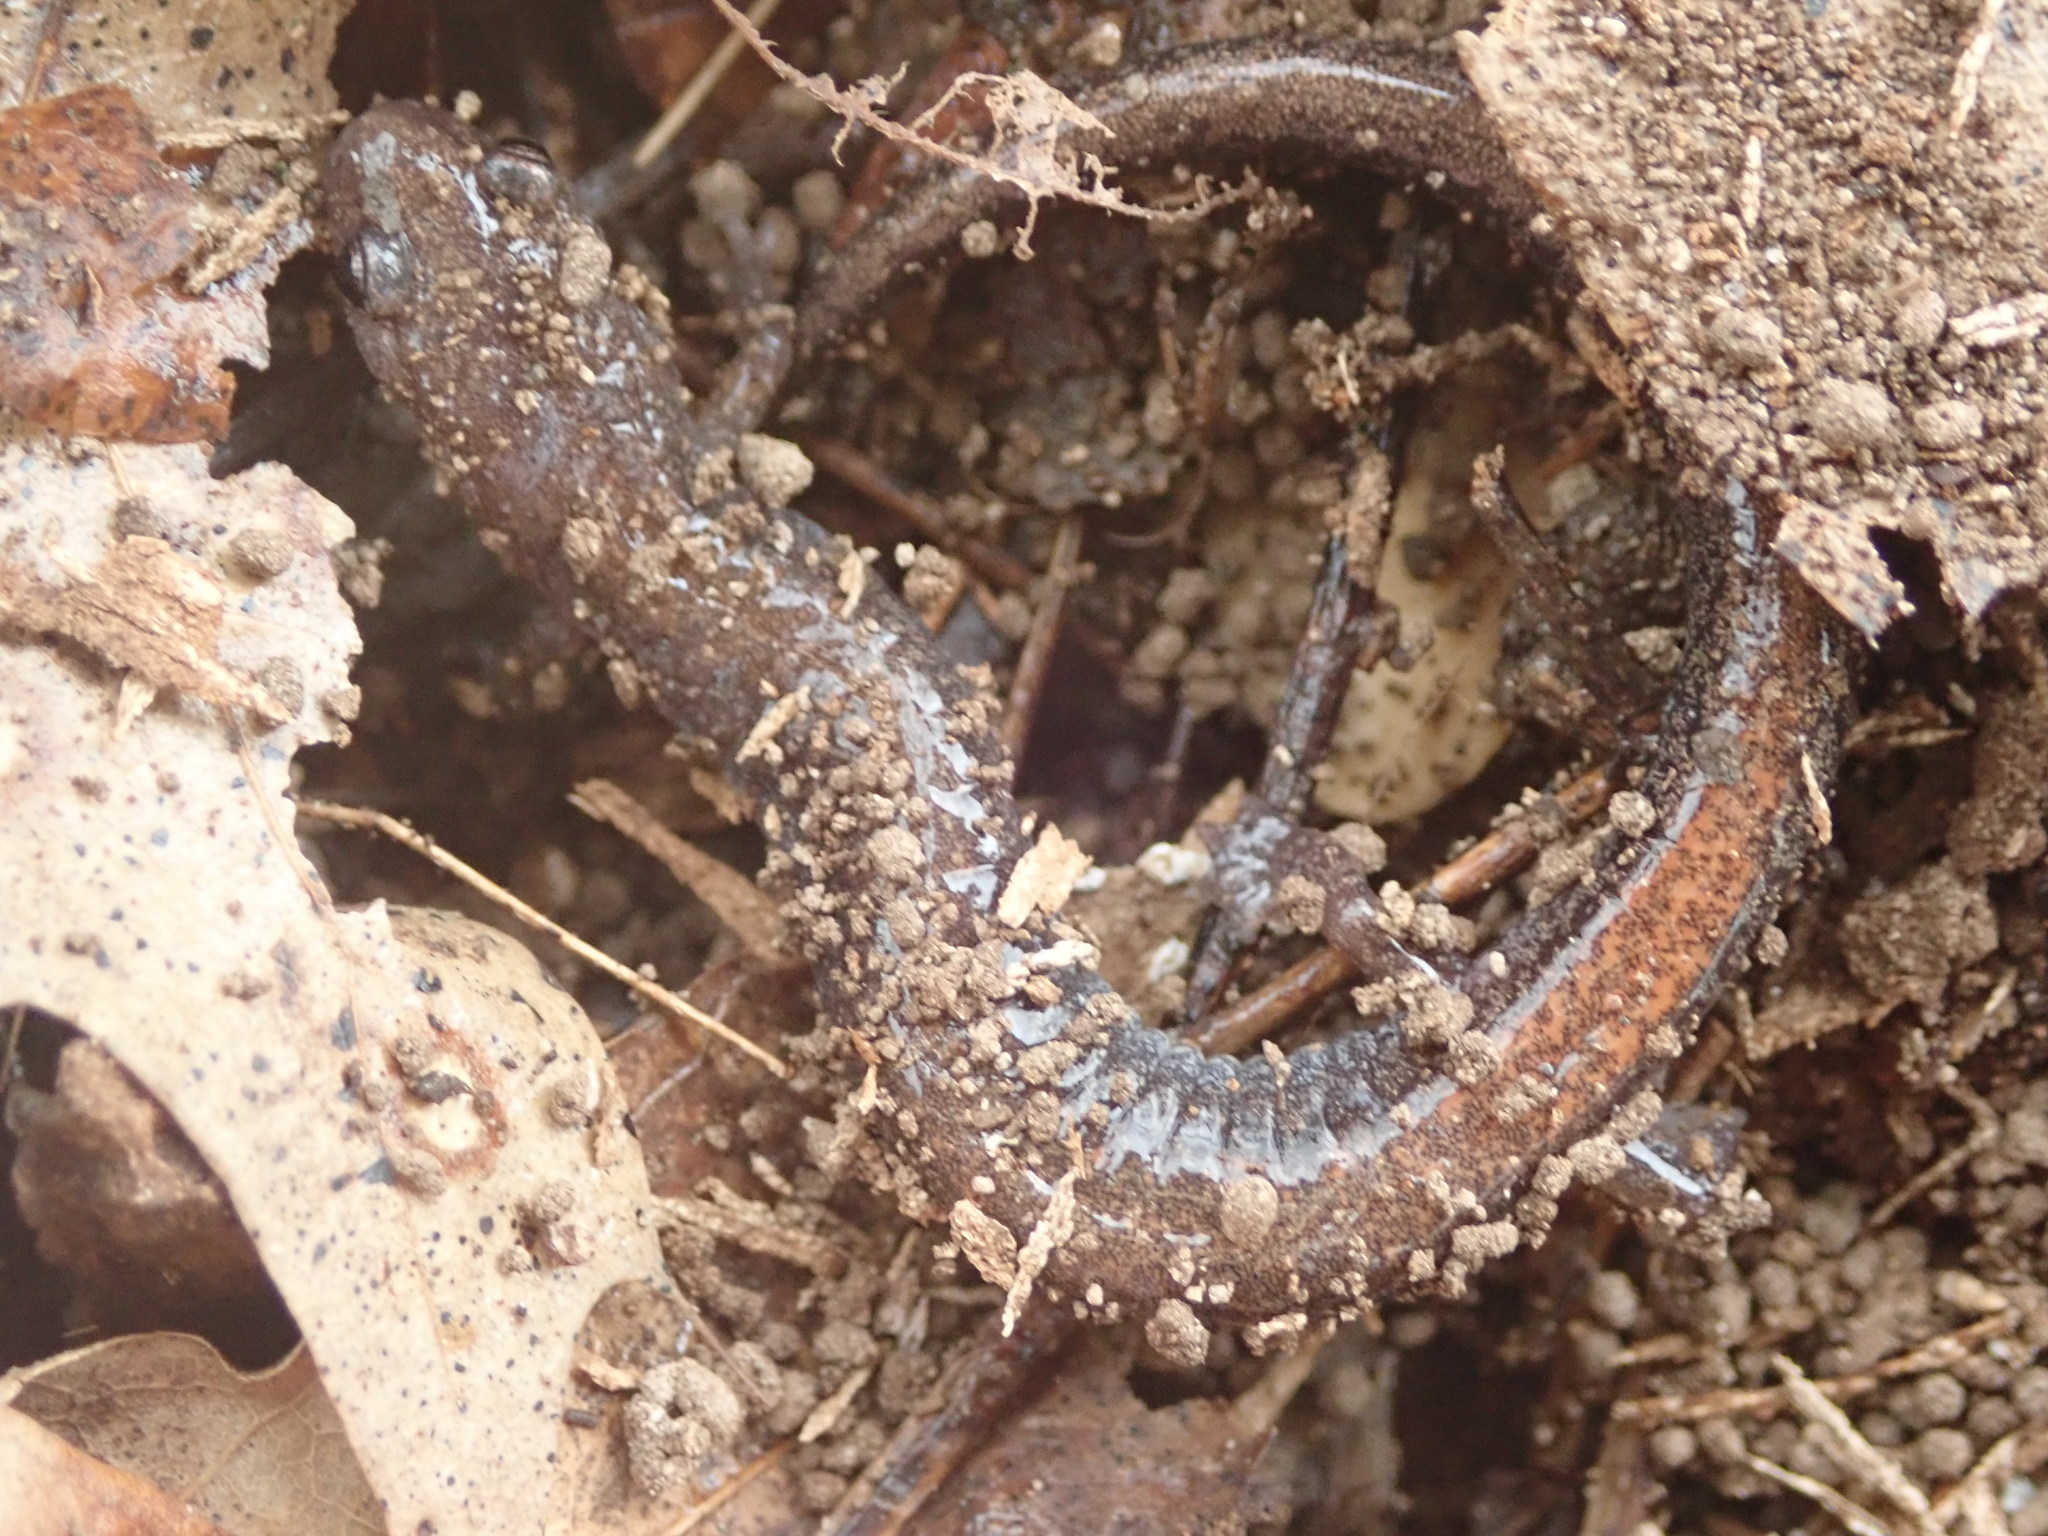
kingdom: Animalia
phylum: Chordata
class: Amphibia
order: Caudata
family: Plethodontidae
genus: Plethodon
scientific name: Plethodon cinereus
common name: Redback salamander
